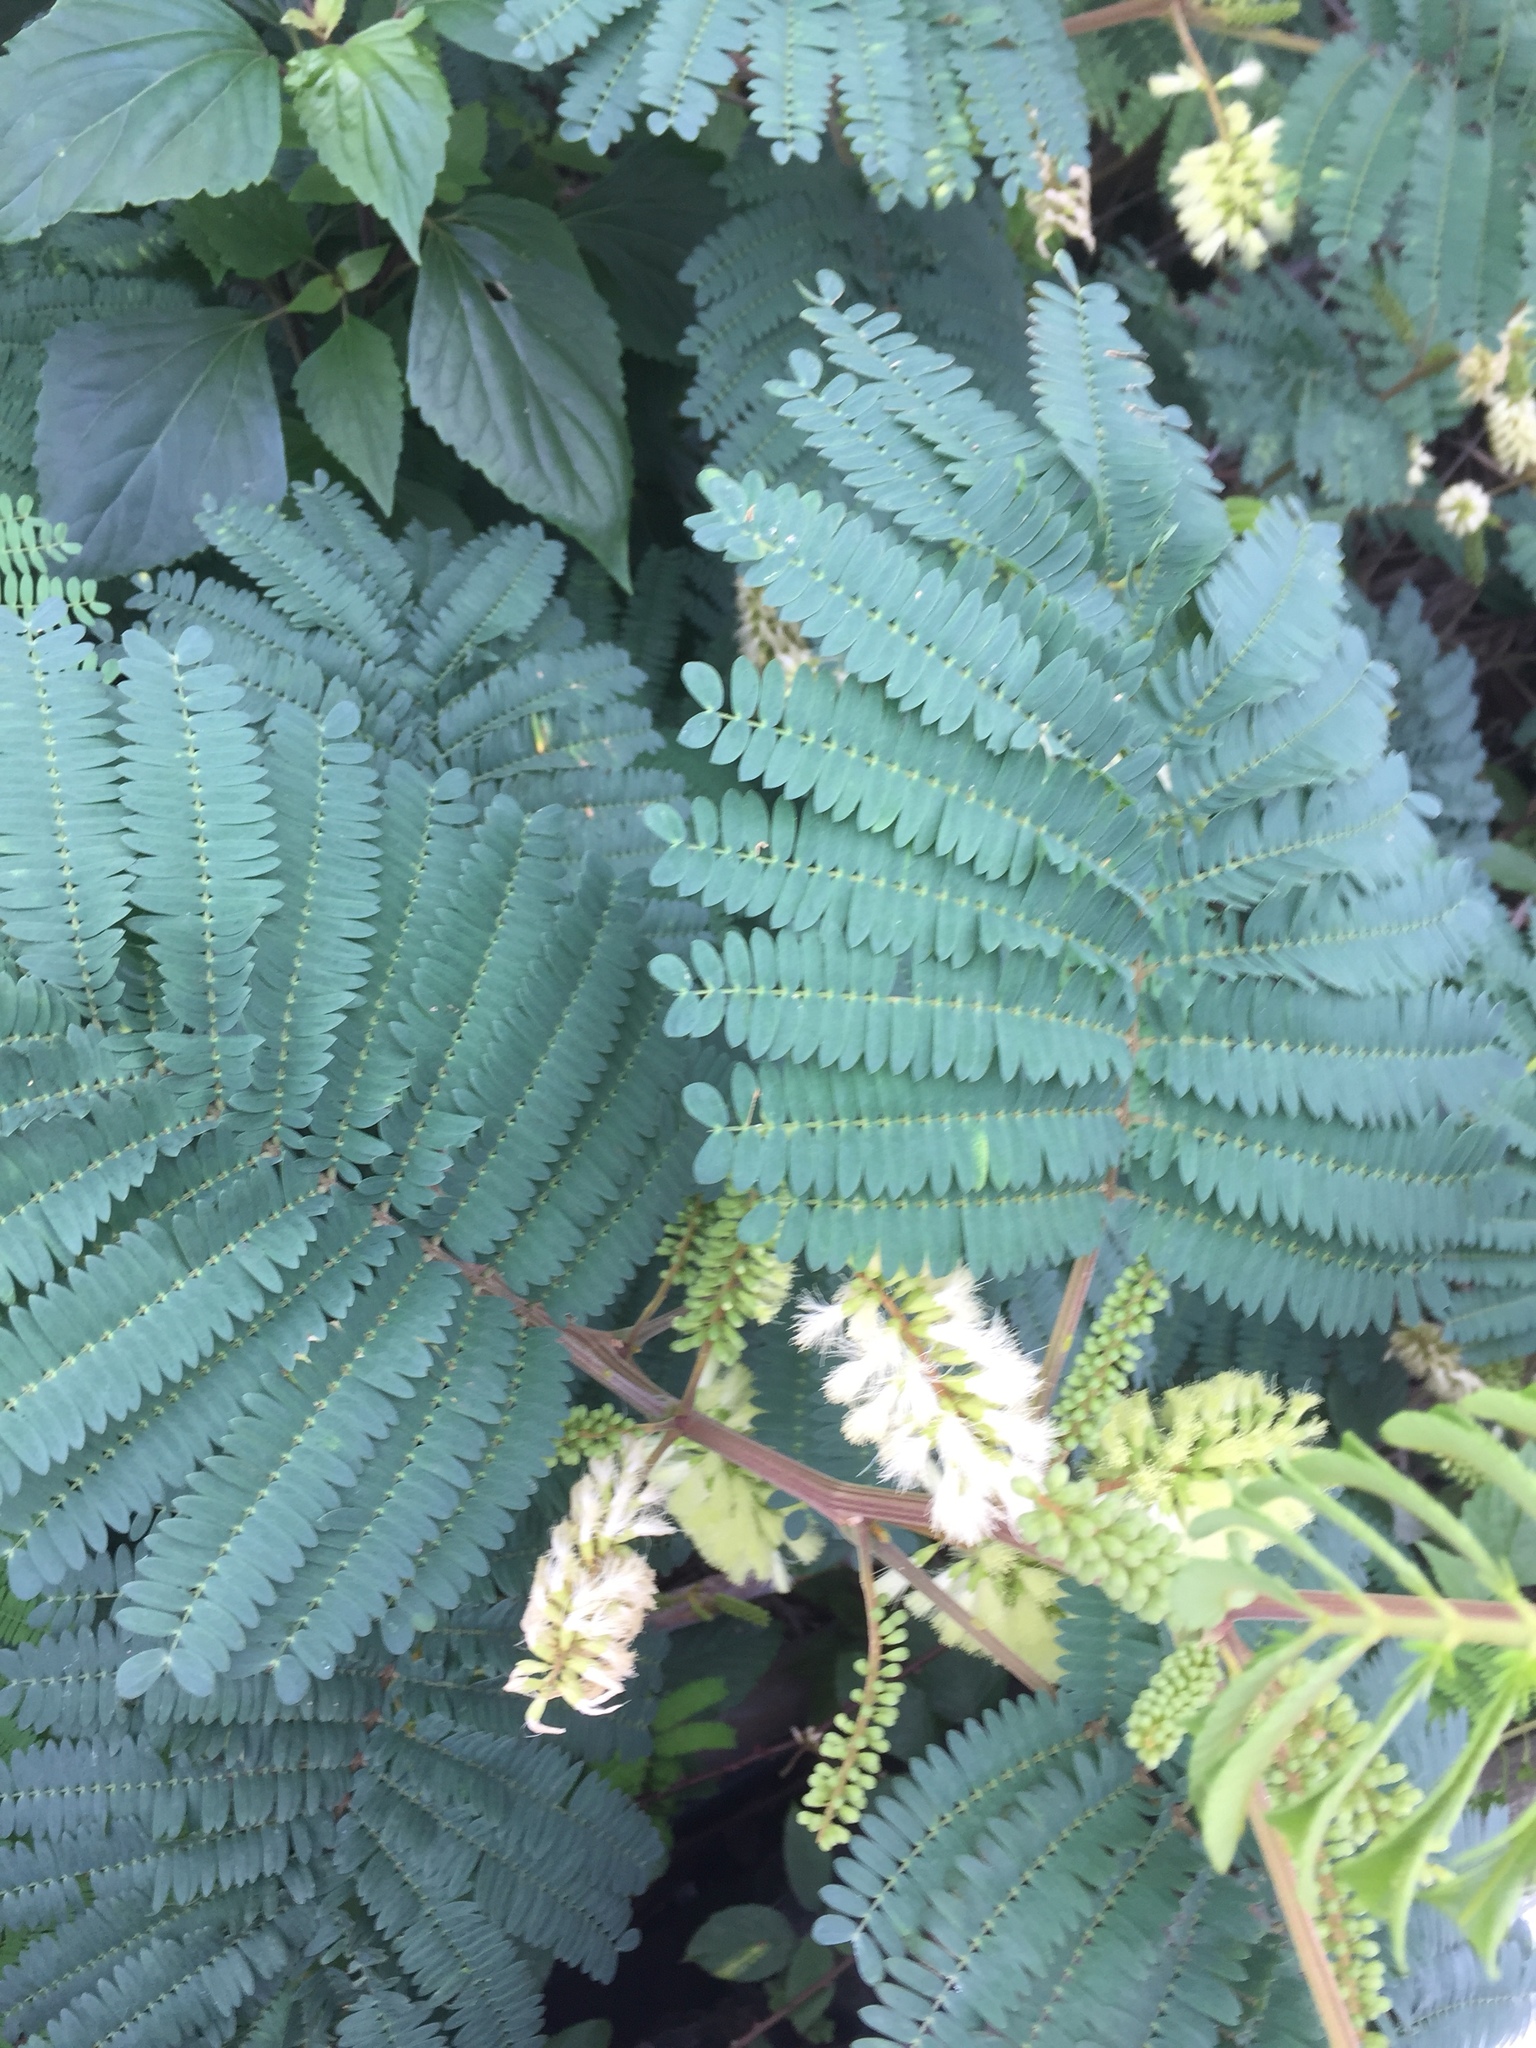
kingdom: Plantae
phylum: Tracheophyta
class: Magnoliopsida
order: Fabales
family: Fabaceae
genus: Paraserianthes
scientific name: Paraserianthes lophantha
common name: Plume albizia
